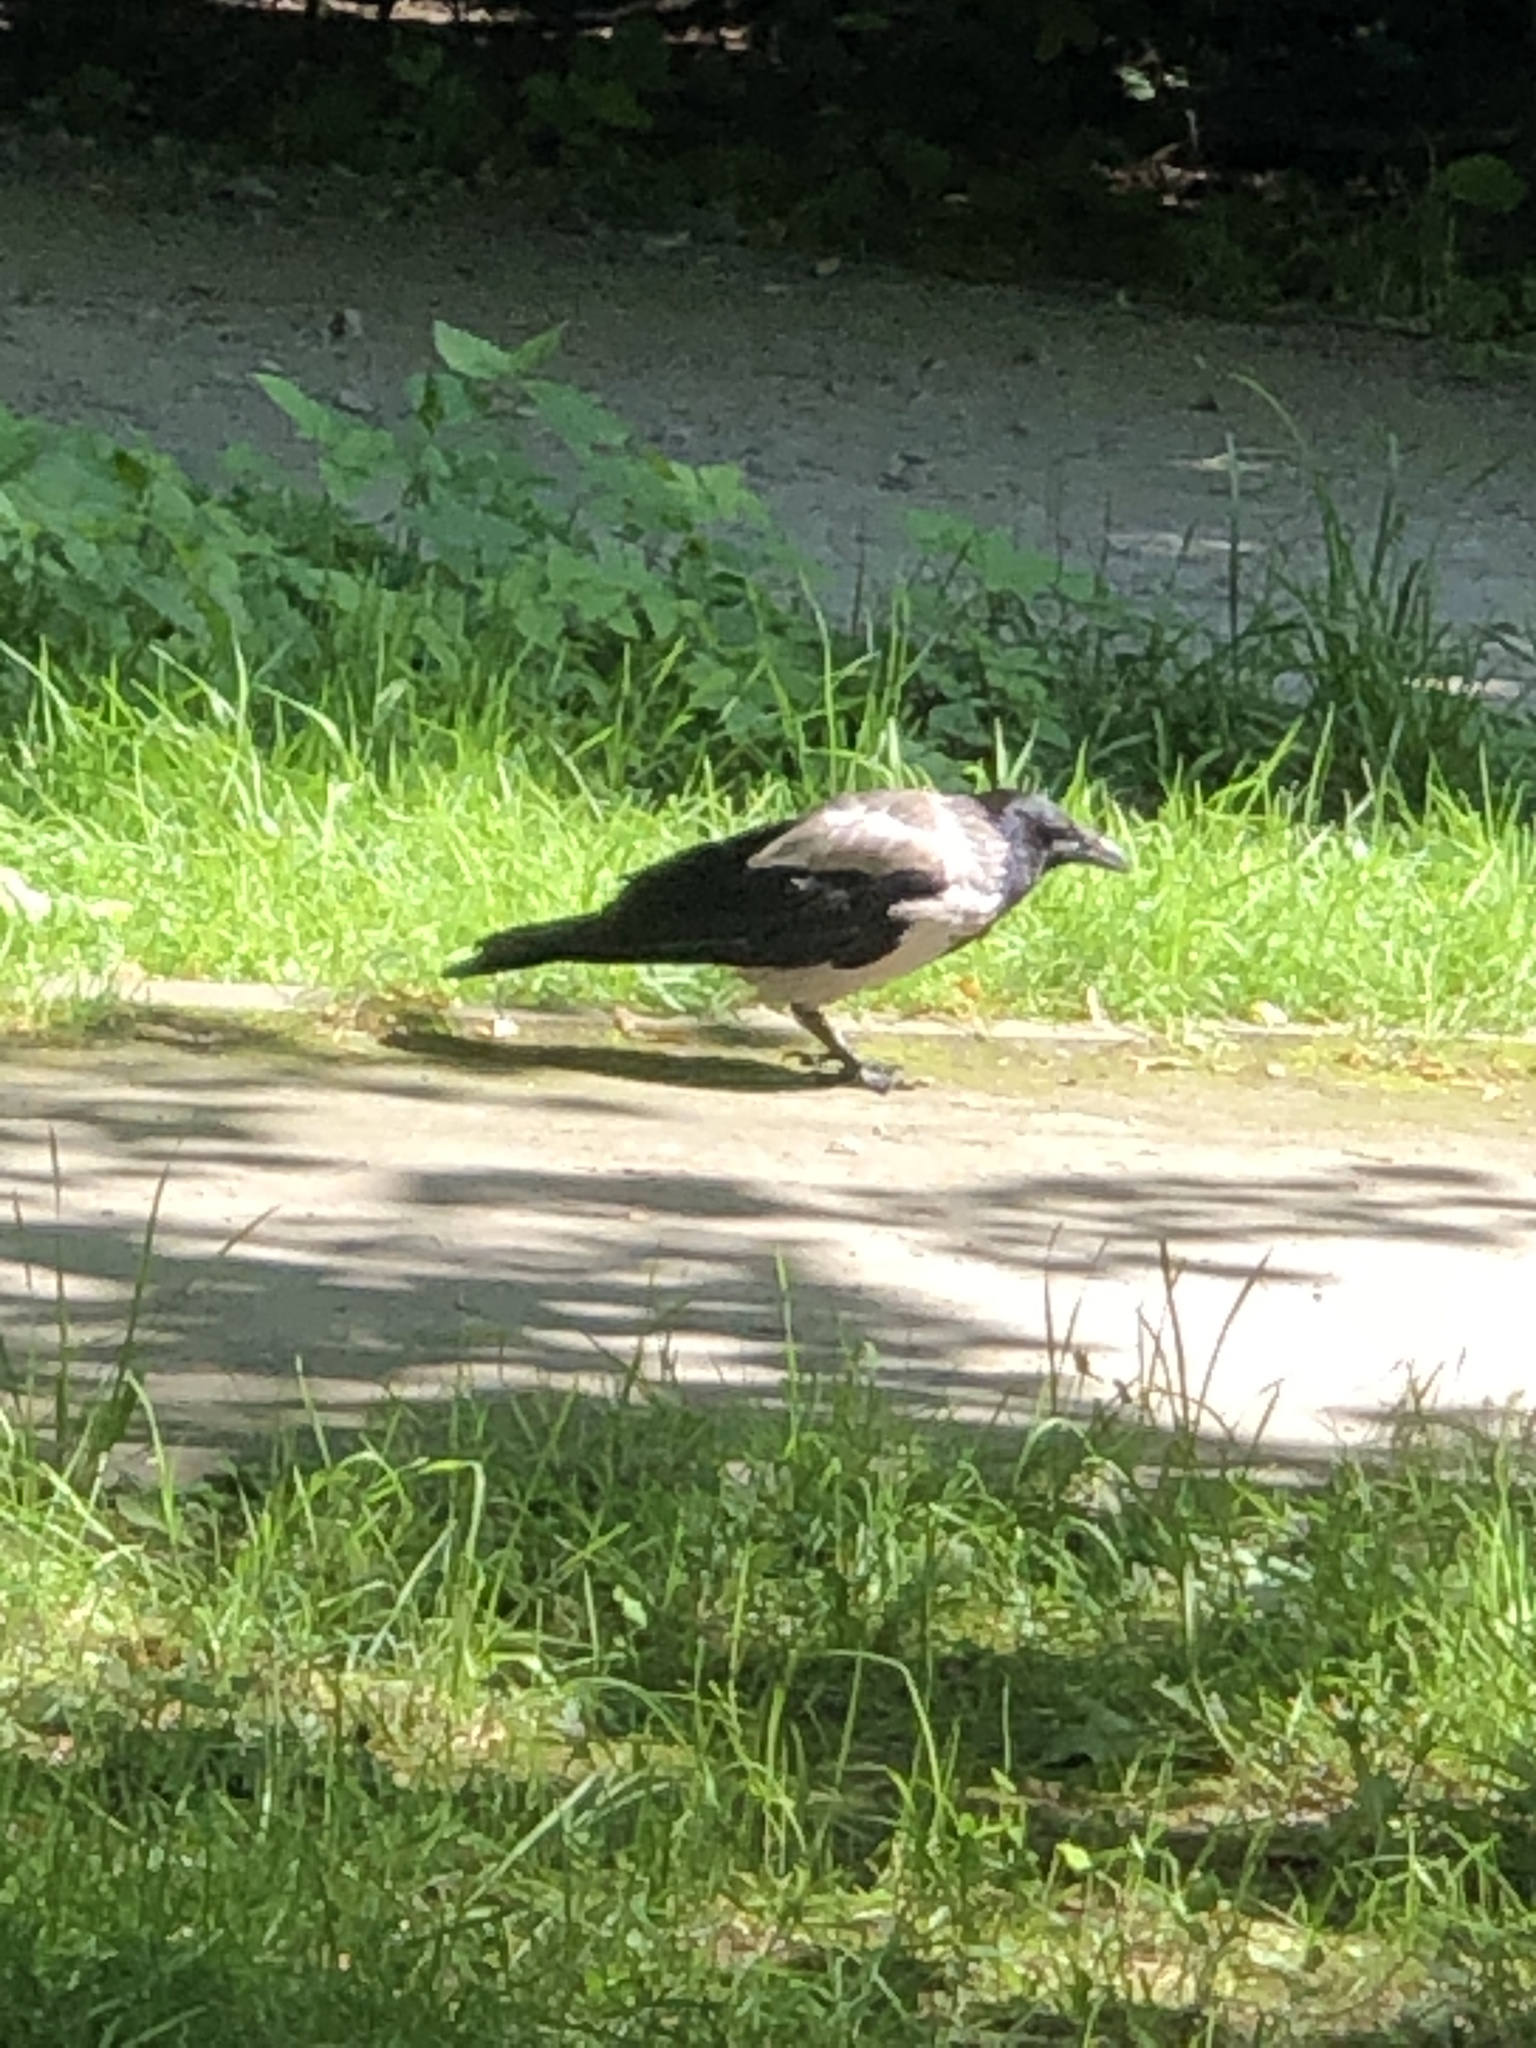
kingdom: Animalia
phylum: Chordata
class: Aves
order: Passeriformes
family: Corvidae
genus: Corvus
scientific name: Corvus cornix
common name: Hooded crow
